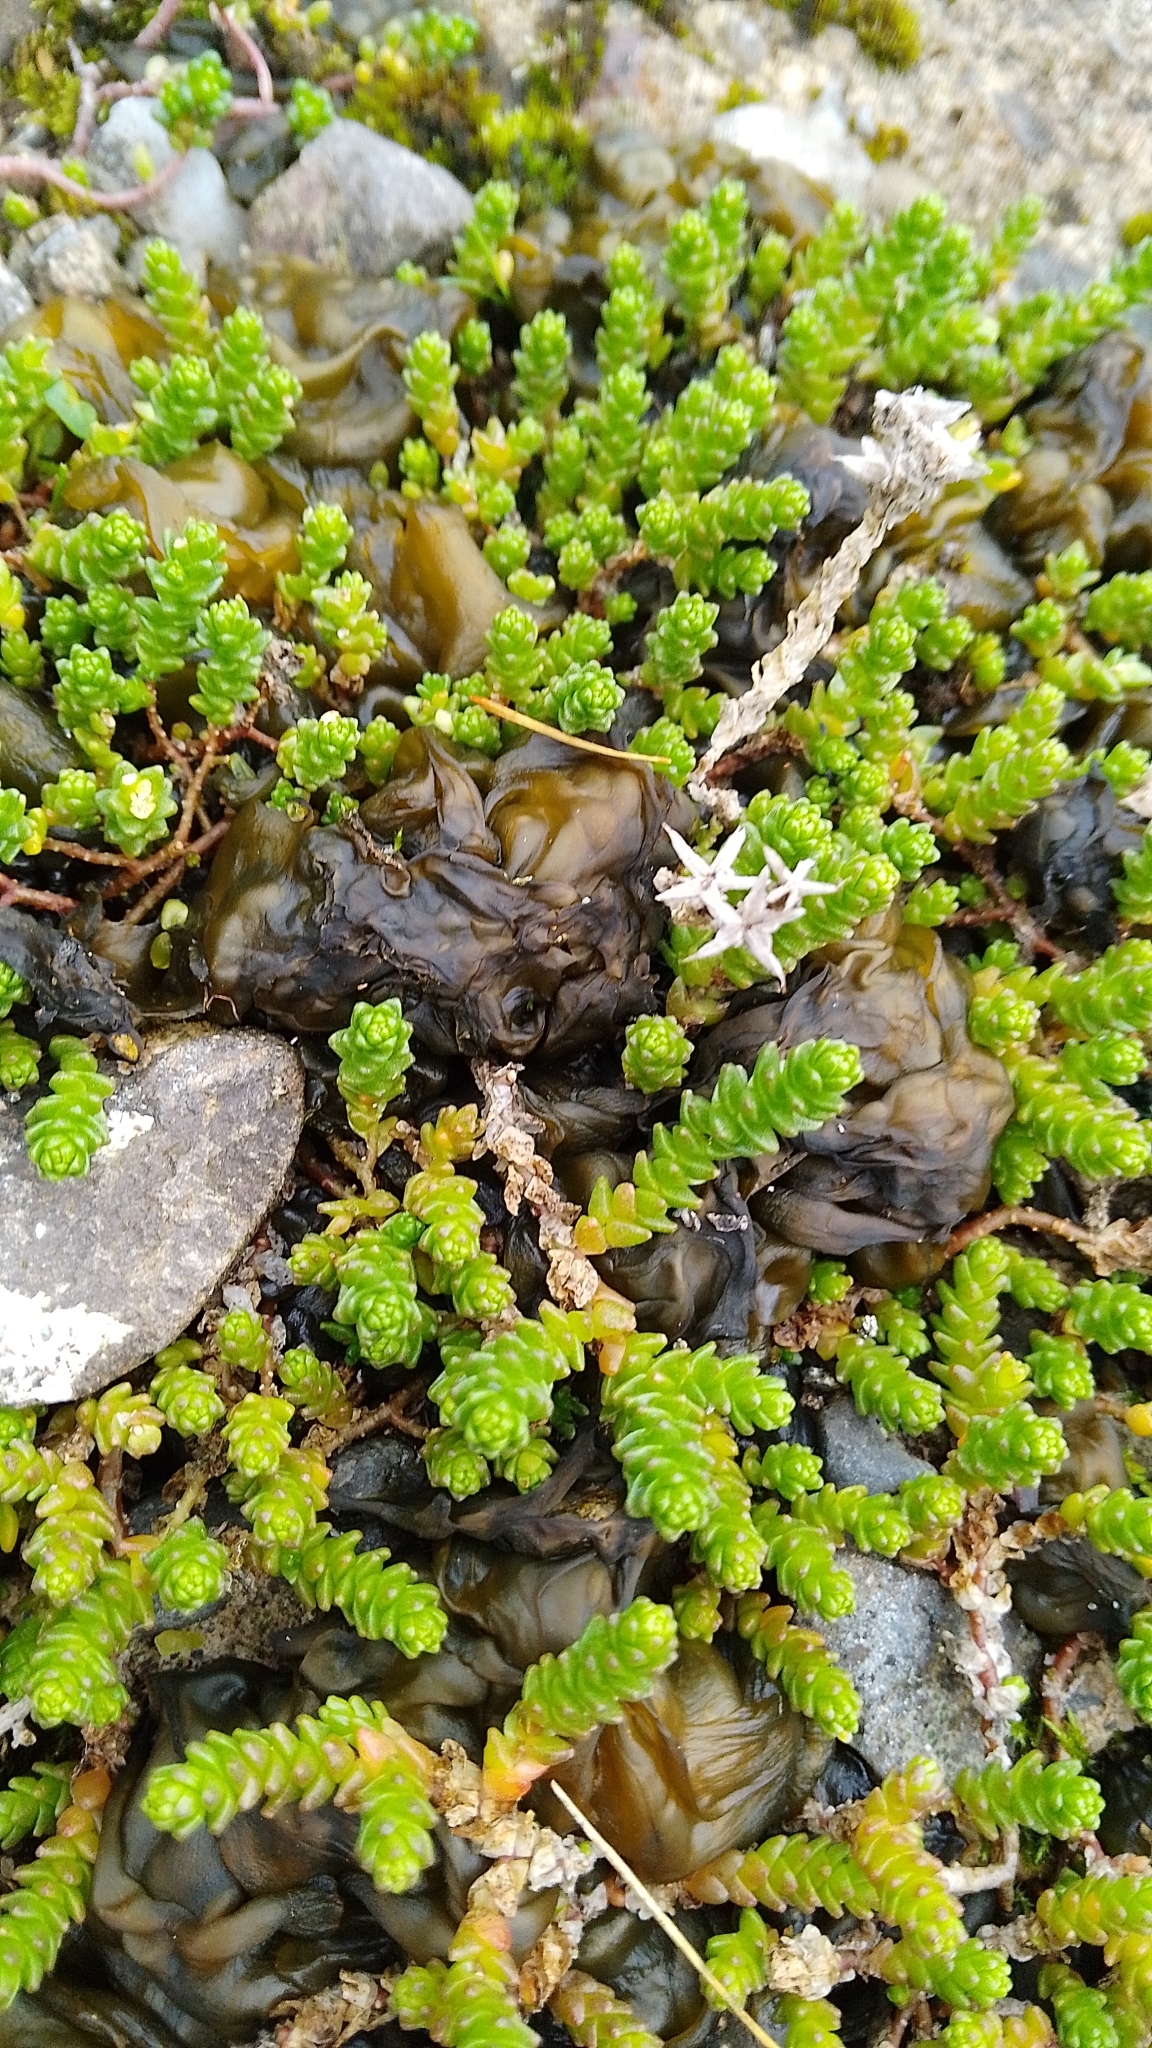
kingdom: Plantae
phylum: Tracheophyta
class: Magnoliopsida
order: Saxifragales
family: Crassulaceae
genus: Sedum
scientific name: Sedum acre
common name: Biting stonecrop
